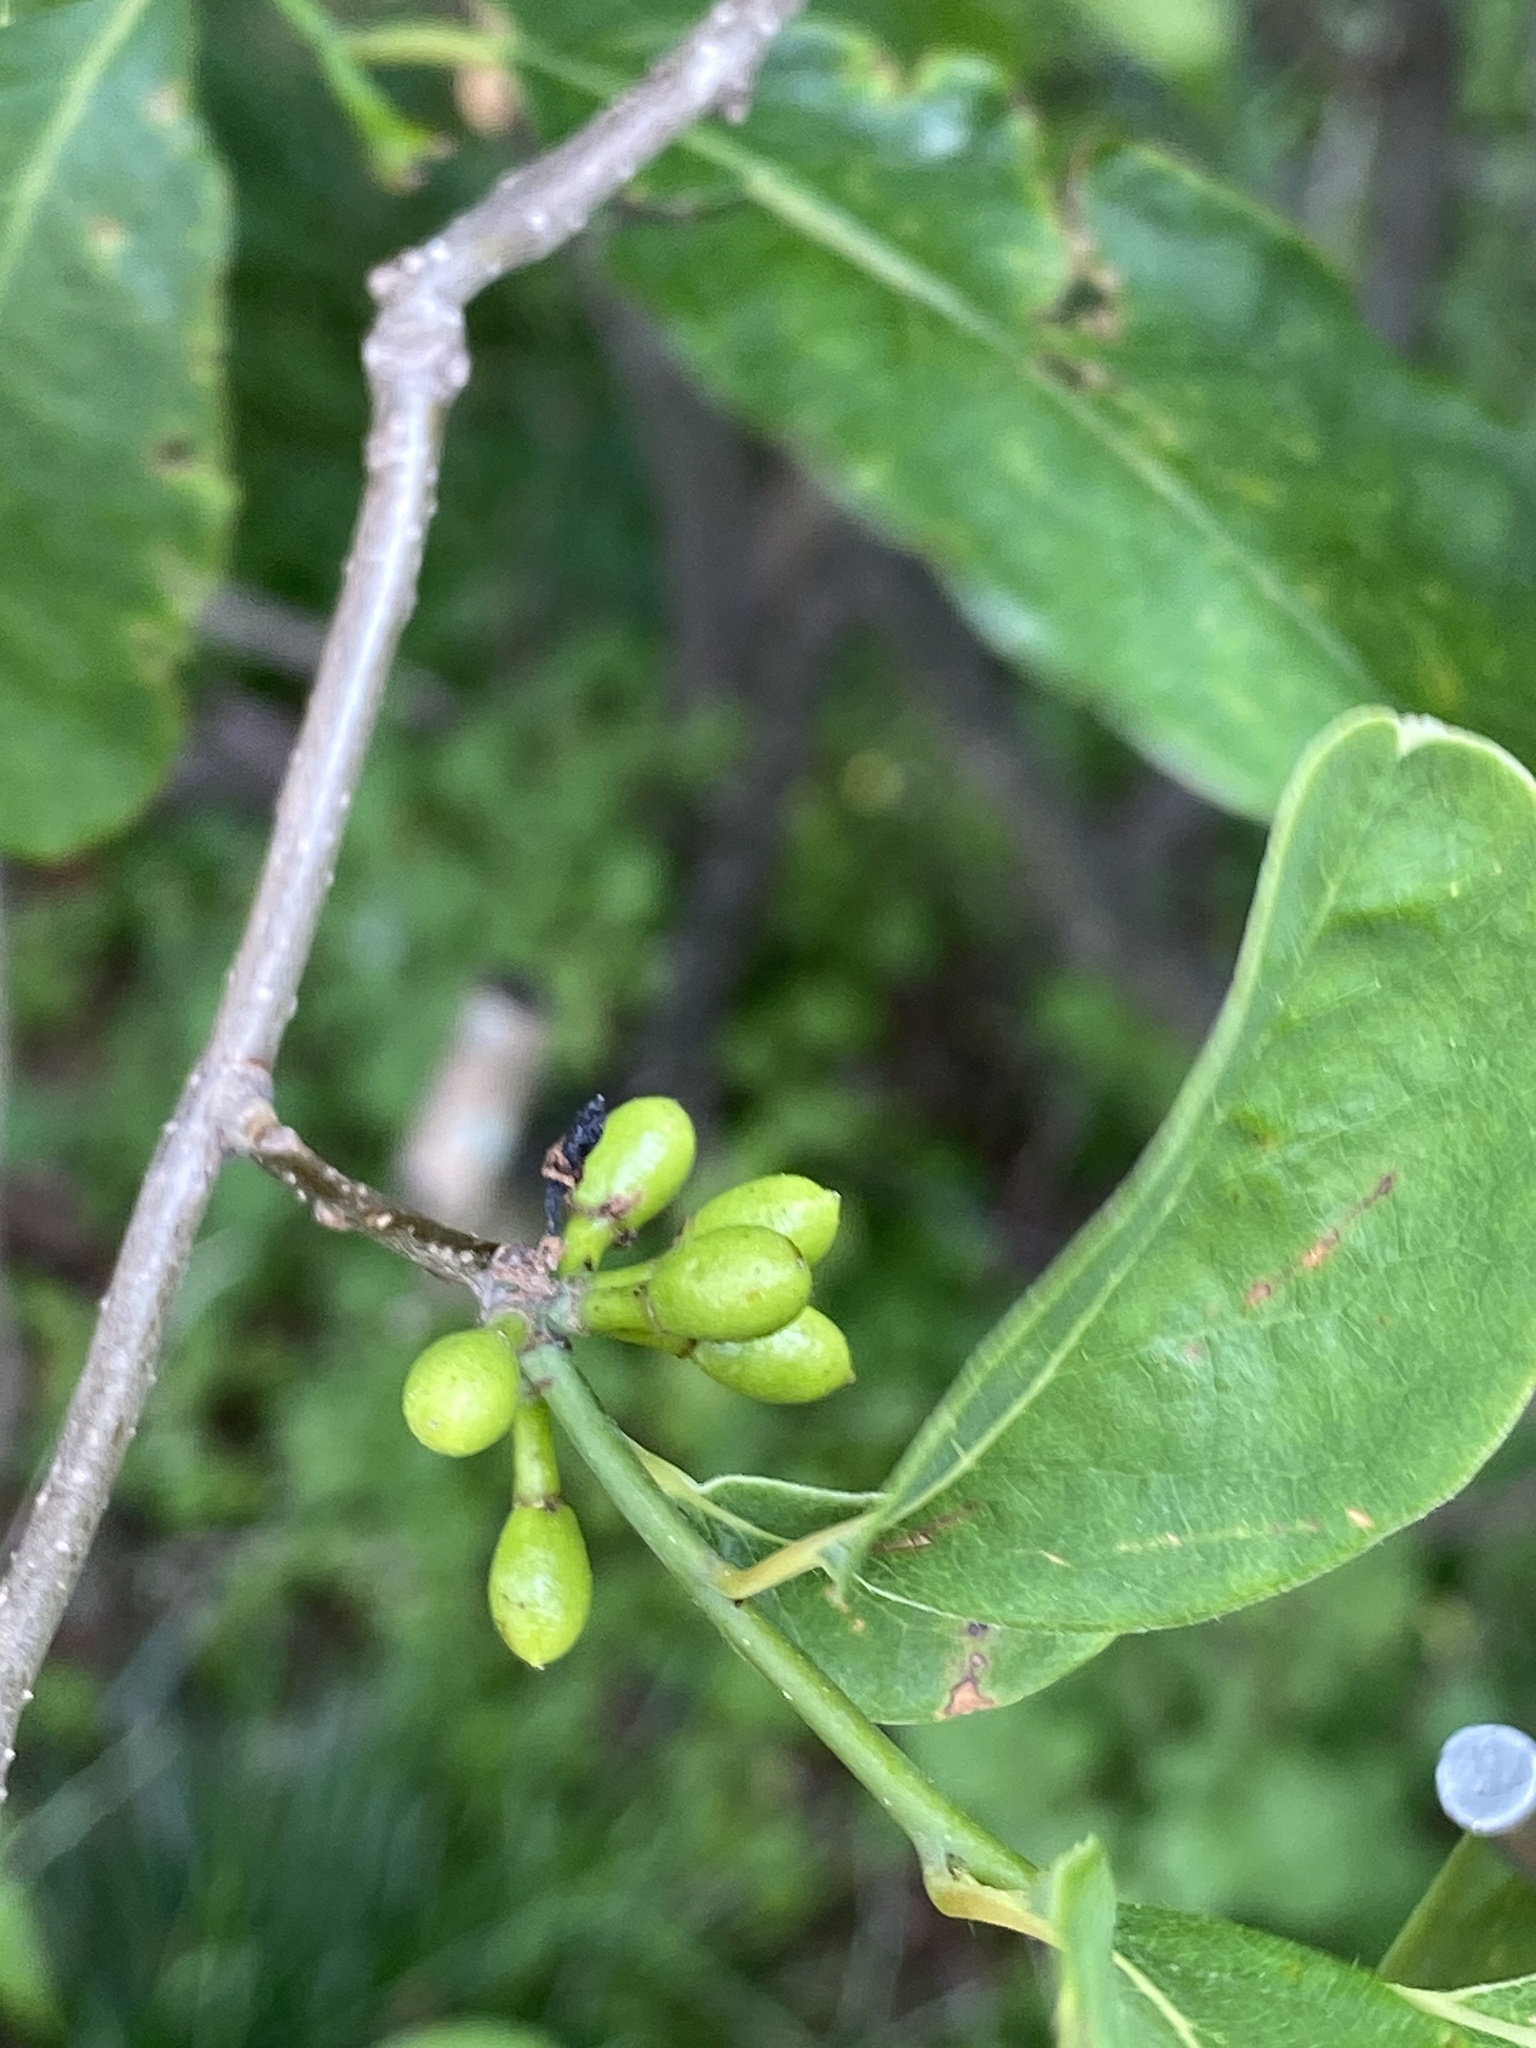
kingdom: Plantae
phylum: Tracheophyta
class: Magnoliopsida
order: Laurales
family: Lauraceae
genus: Lindera
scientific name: Lindera benzoin
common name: Spicebush
